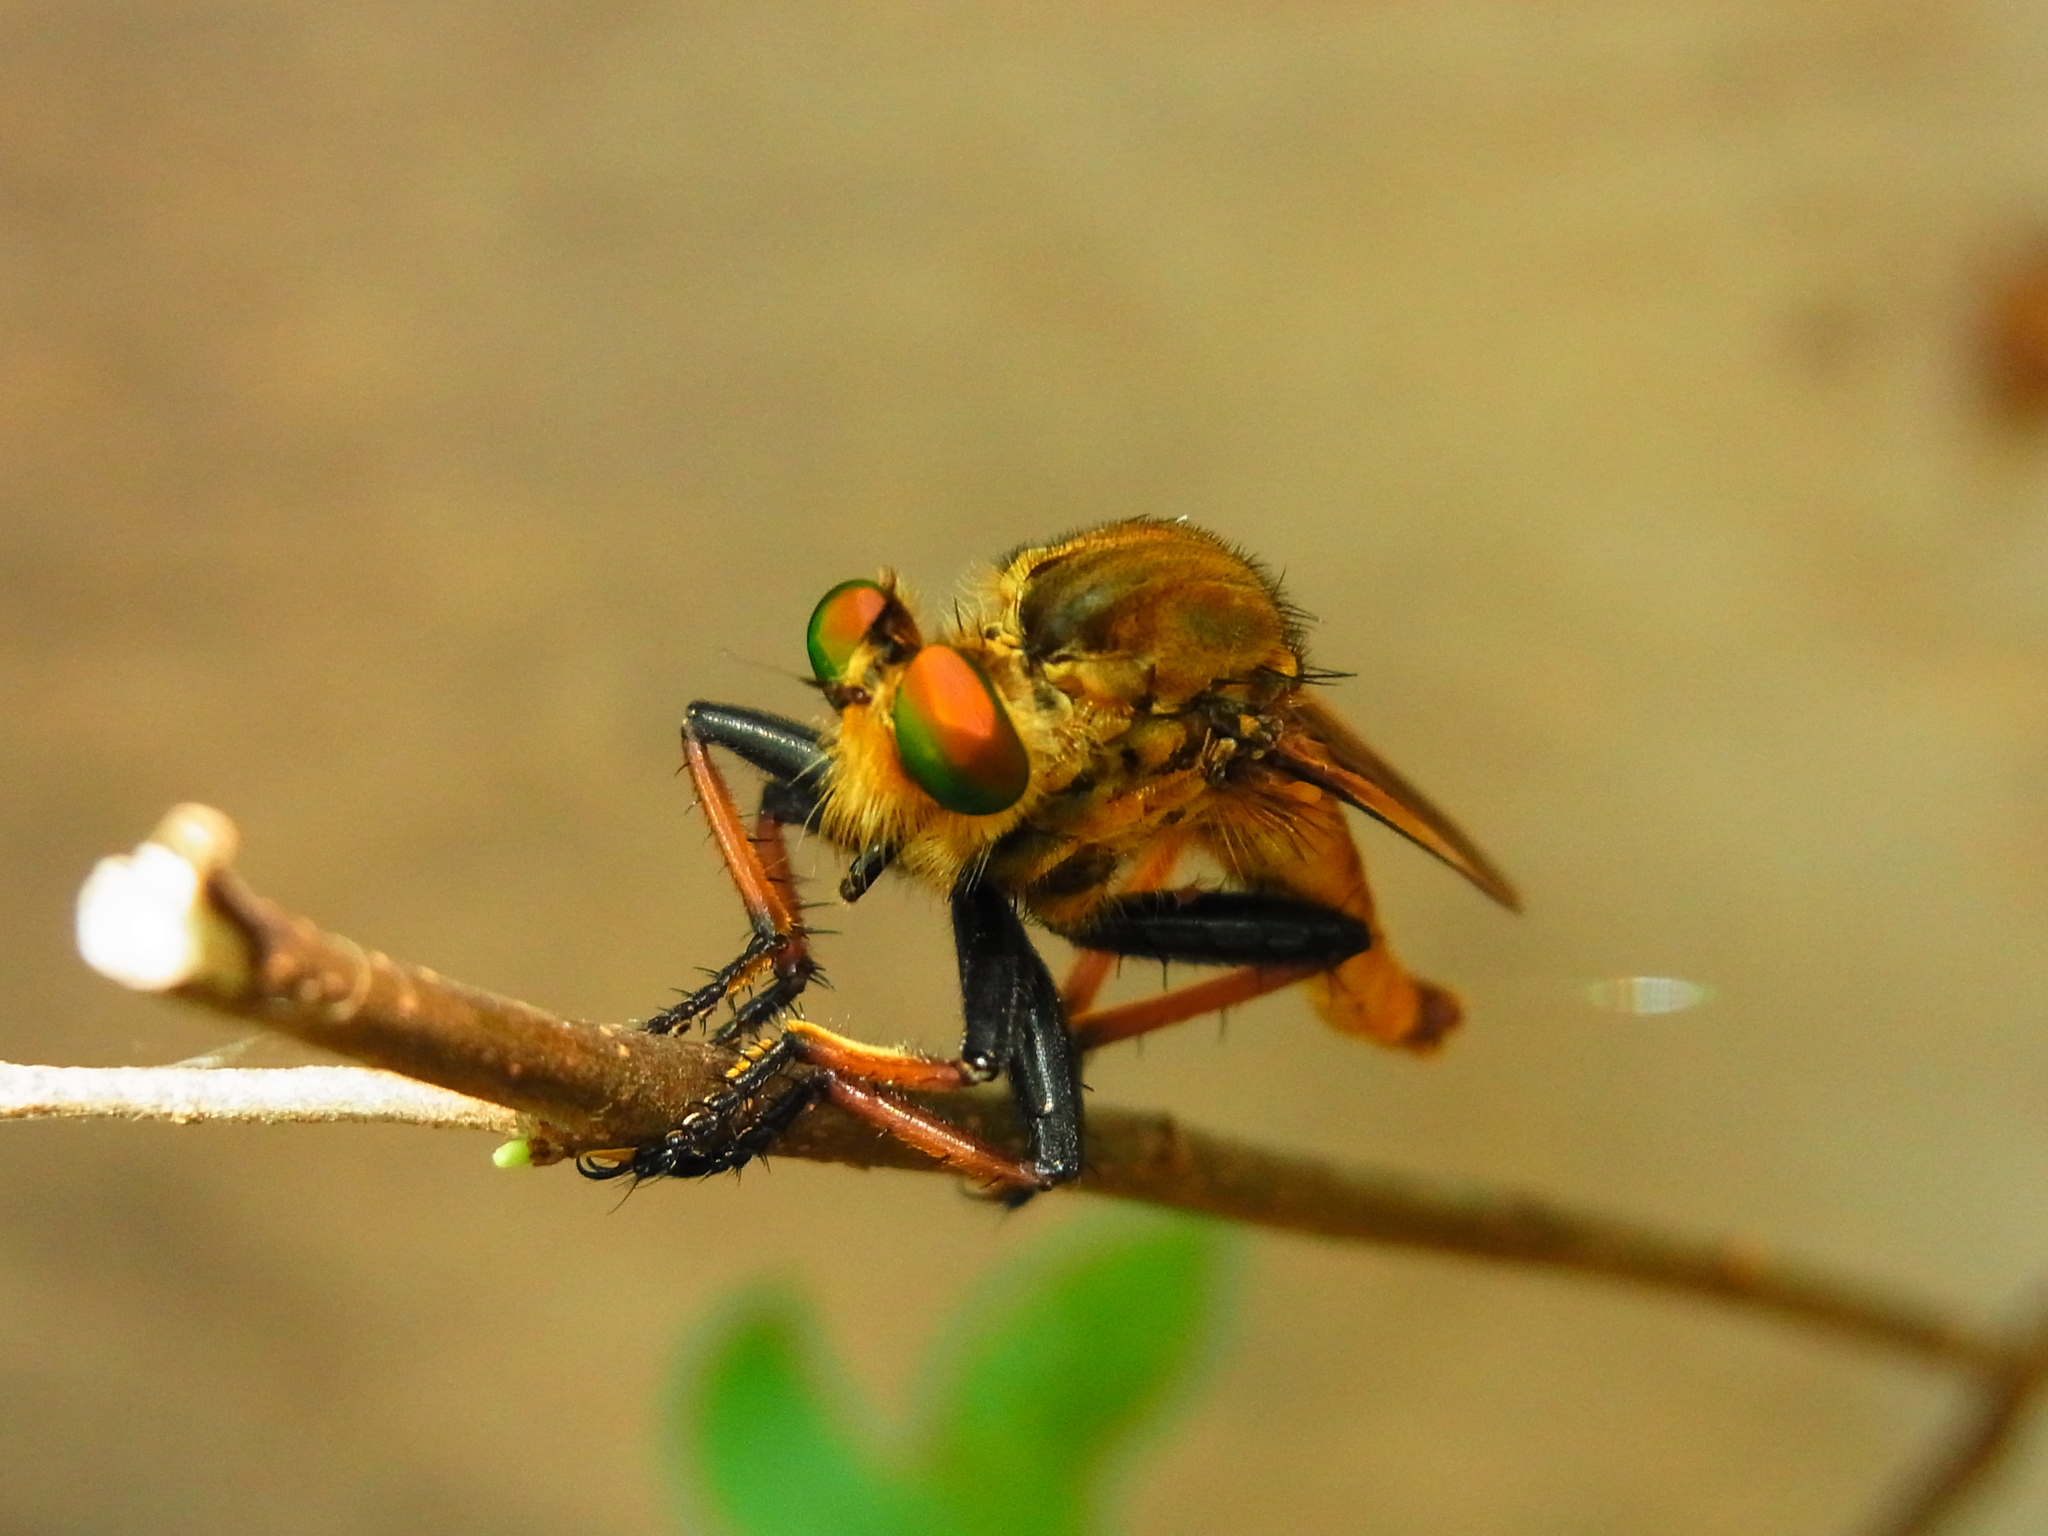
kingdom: Animalia
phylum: Arthropoda
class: Insecta
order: Diptera
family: Asilidae
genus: Cophinopoda
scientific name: Cophinopoda chinensis
